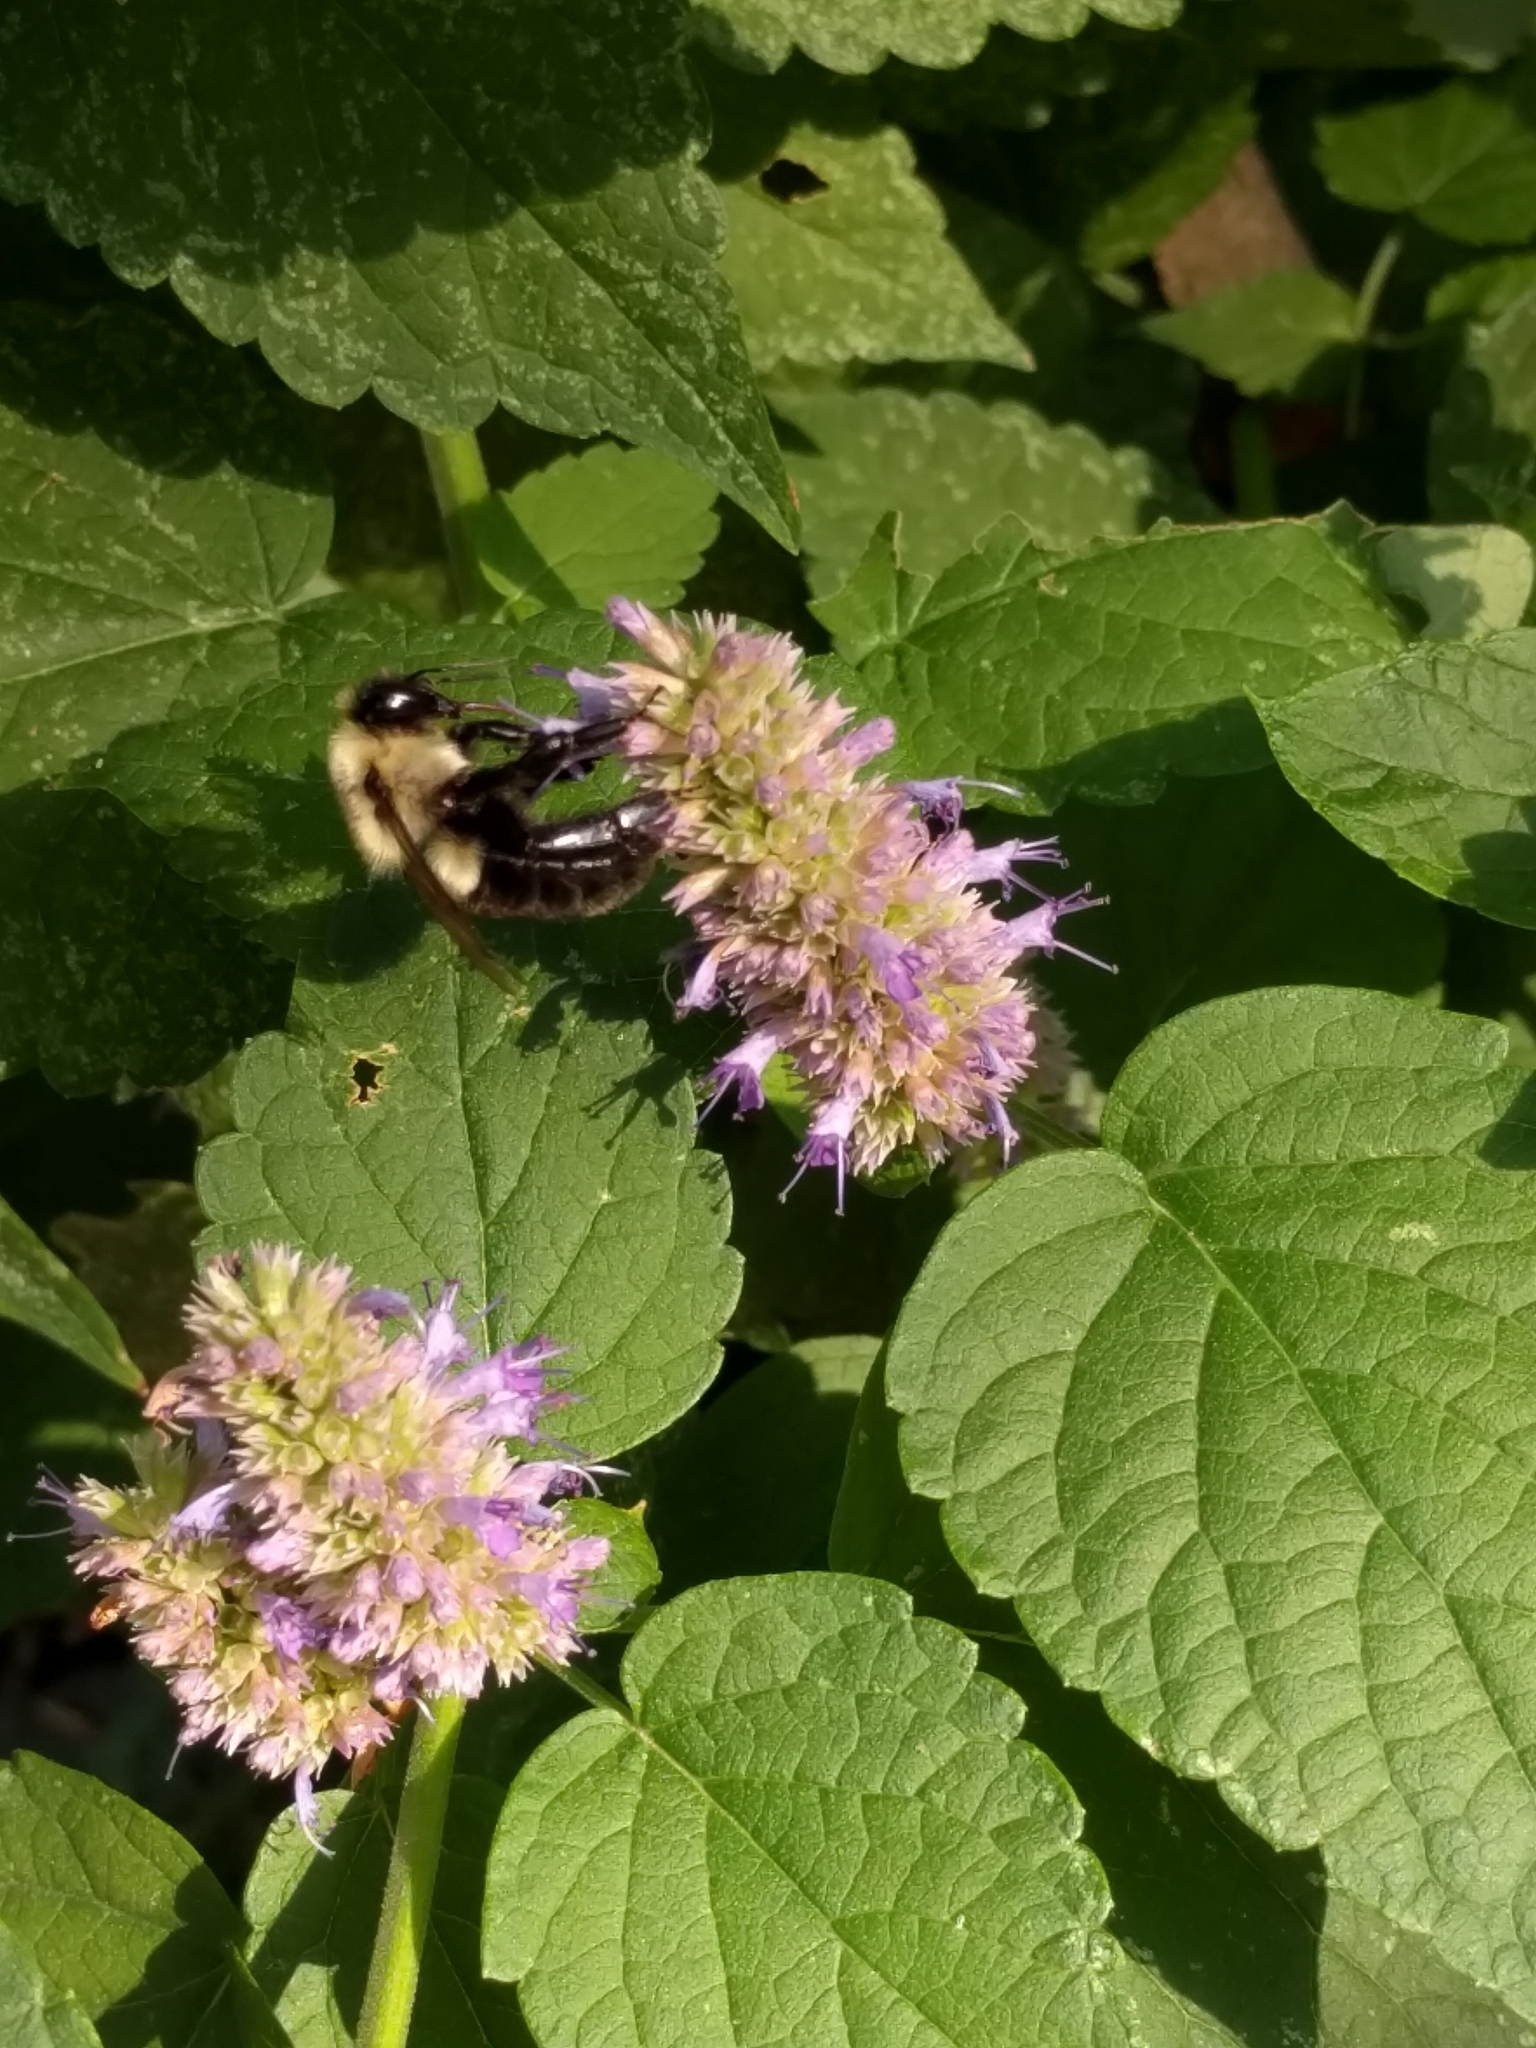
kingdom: Animalia
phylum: Arthropoda
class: Insecta
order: Hymenoptera
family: Apidae
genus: Bombus
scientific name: Bombus impatiens
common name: Common eastern bumble bee
